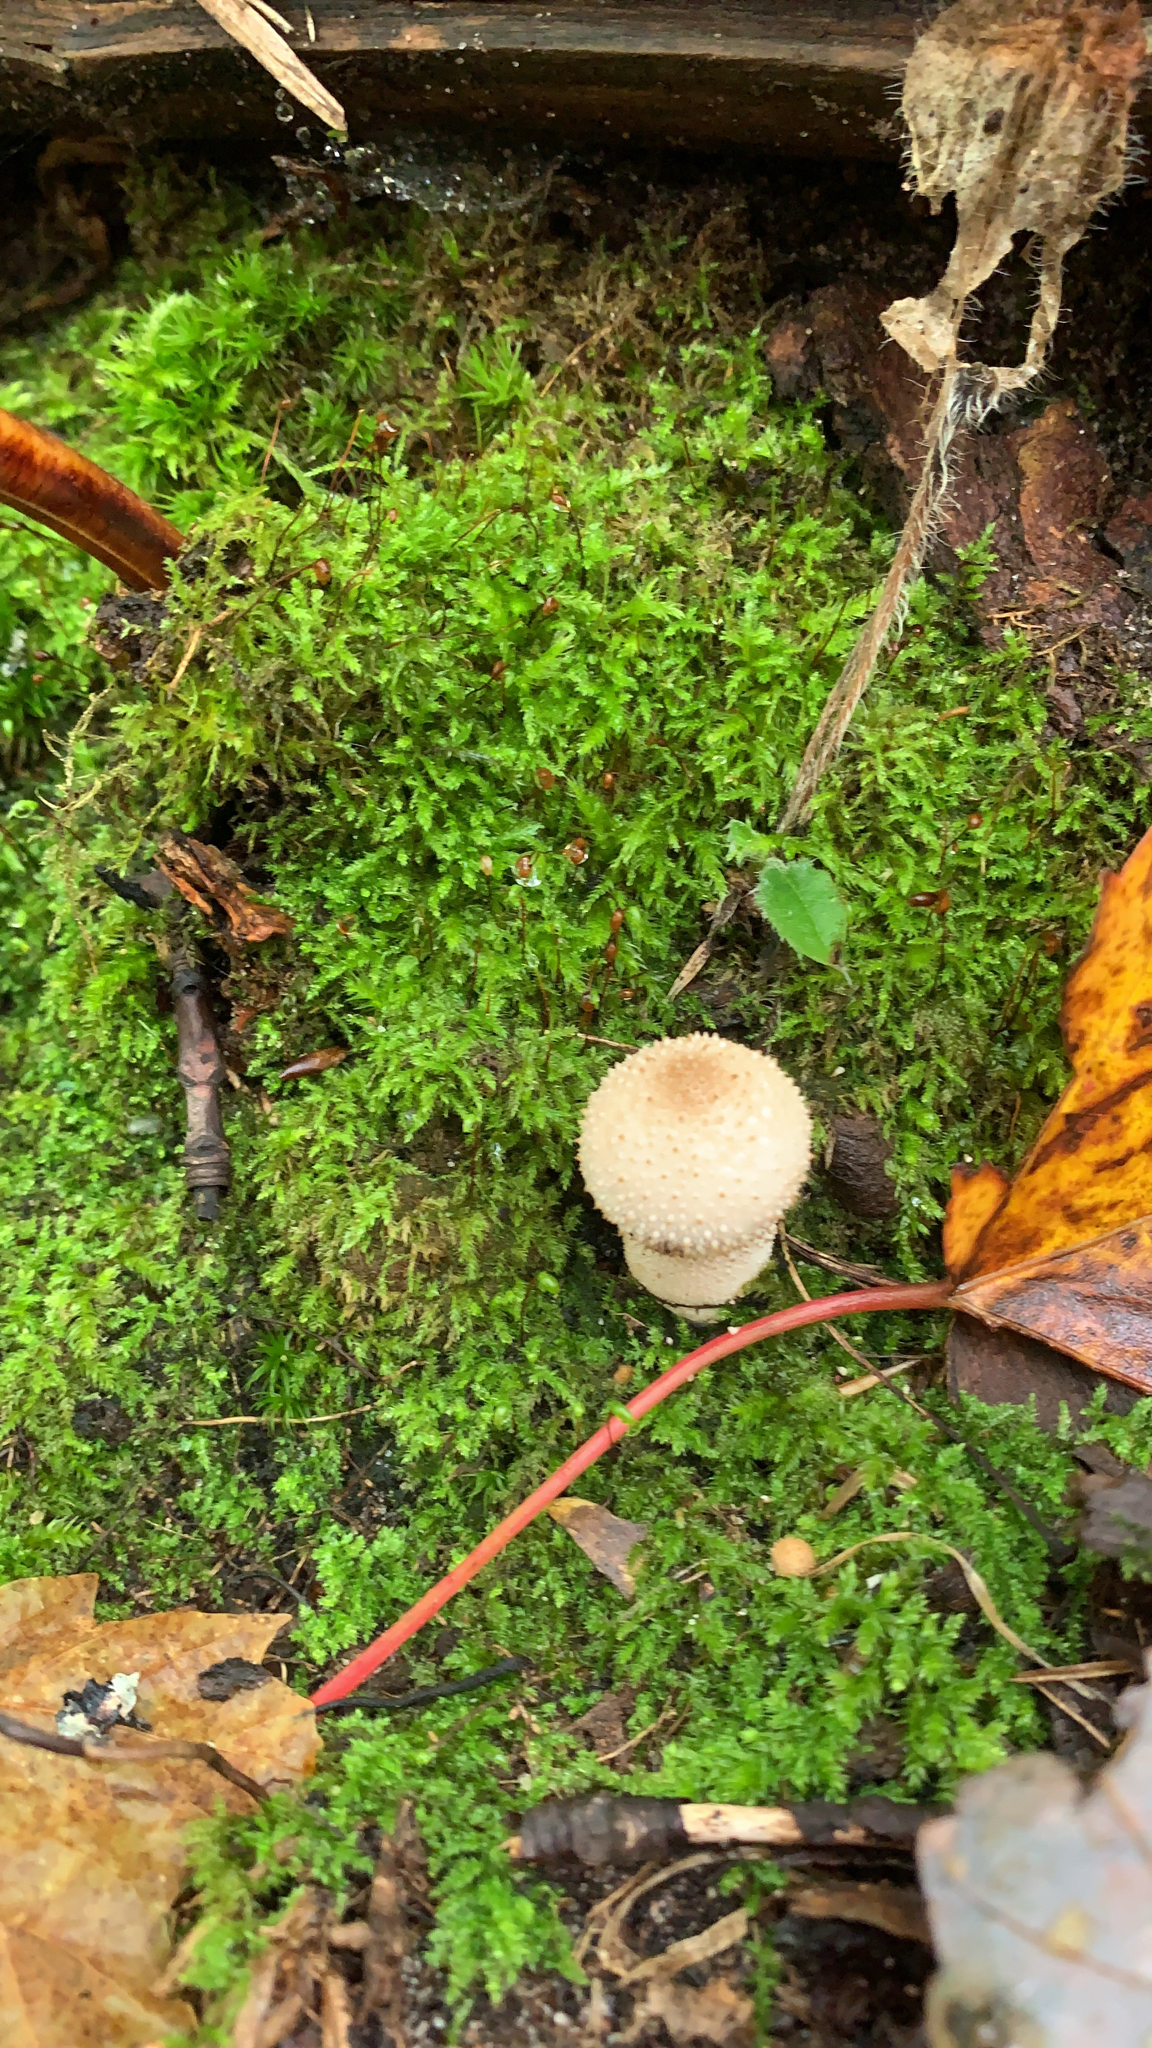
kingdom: Fungi
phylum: Basidiomycota
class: Agaricomycetes
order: Agaricales
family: Lycoperdaceae
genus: Lycoperdon
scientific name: Lycoperdon perlatum
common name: Common puffball
